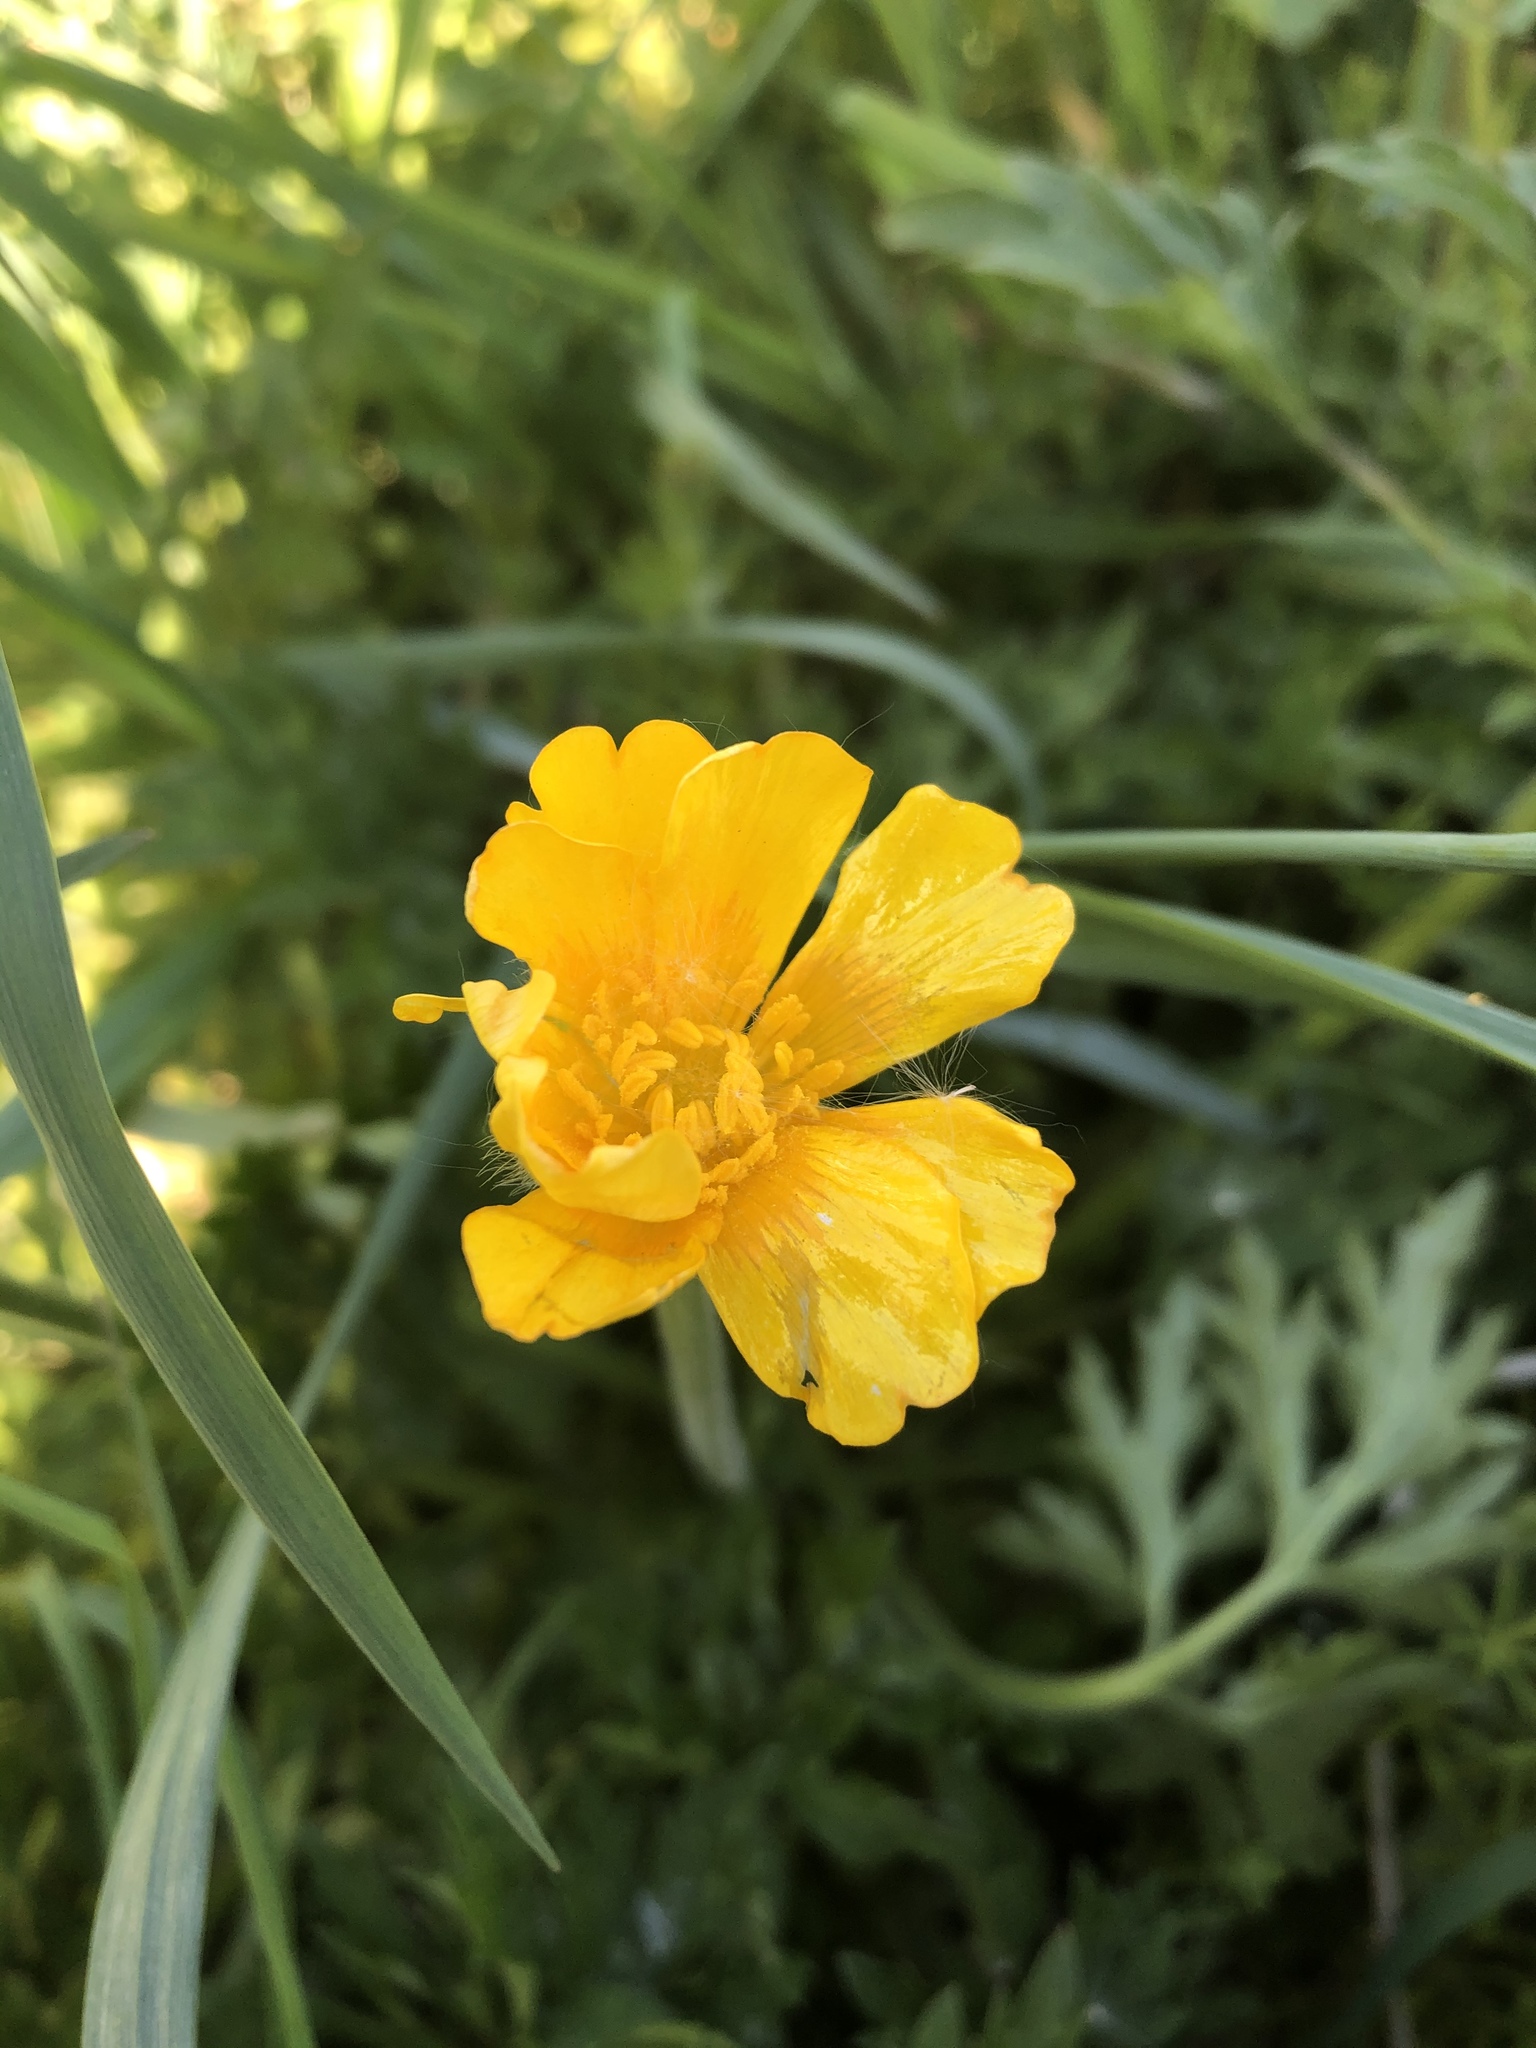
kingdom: Plantae
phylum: Tracheophyta
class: Magnoliopsida
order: Ranunculales
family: Papaveraceae
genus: Papaver
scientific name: Papaver cambricum
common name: Poppy
